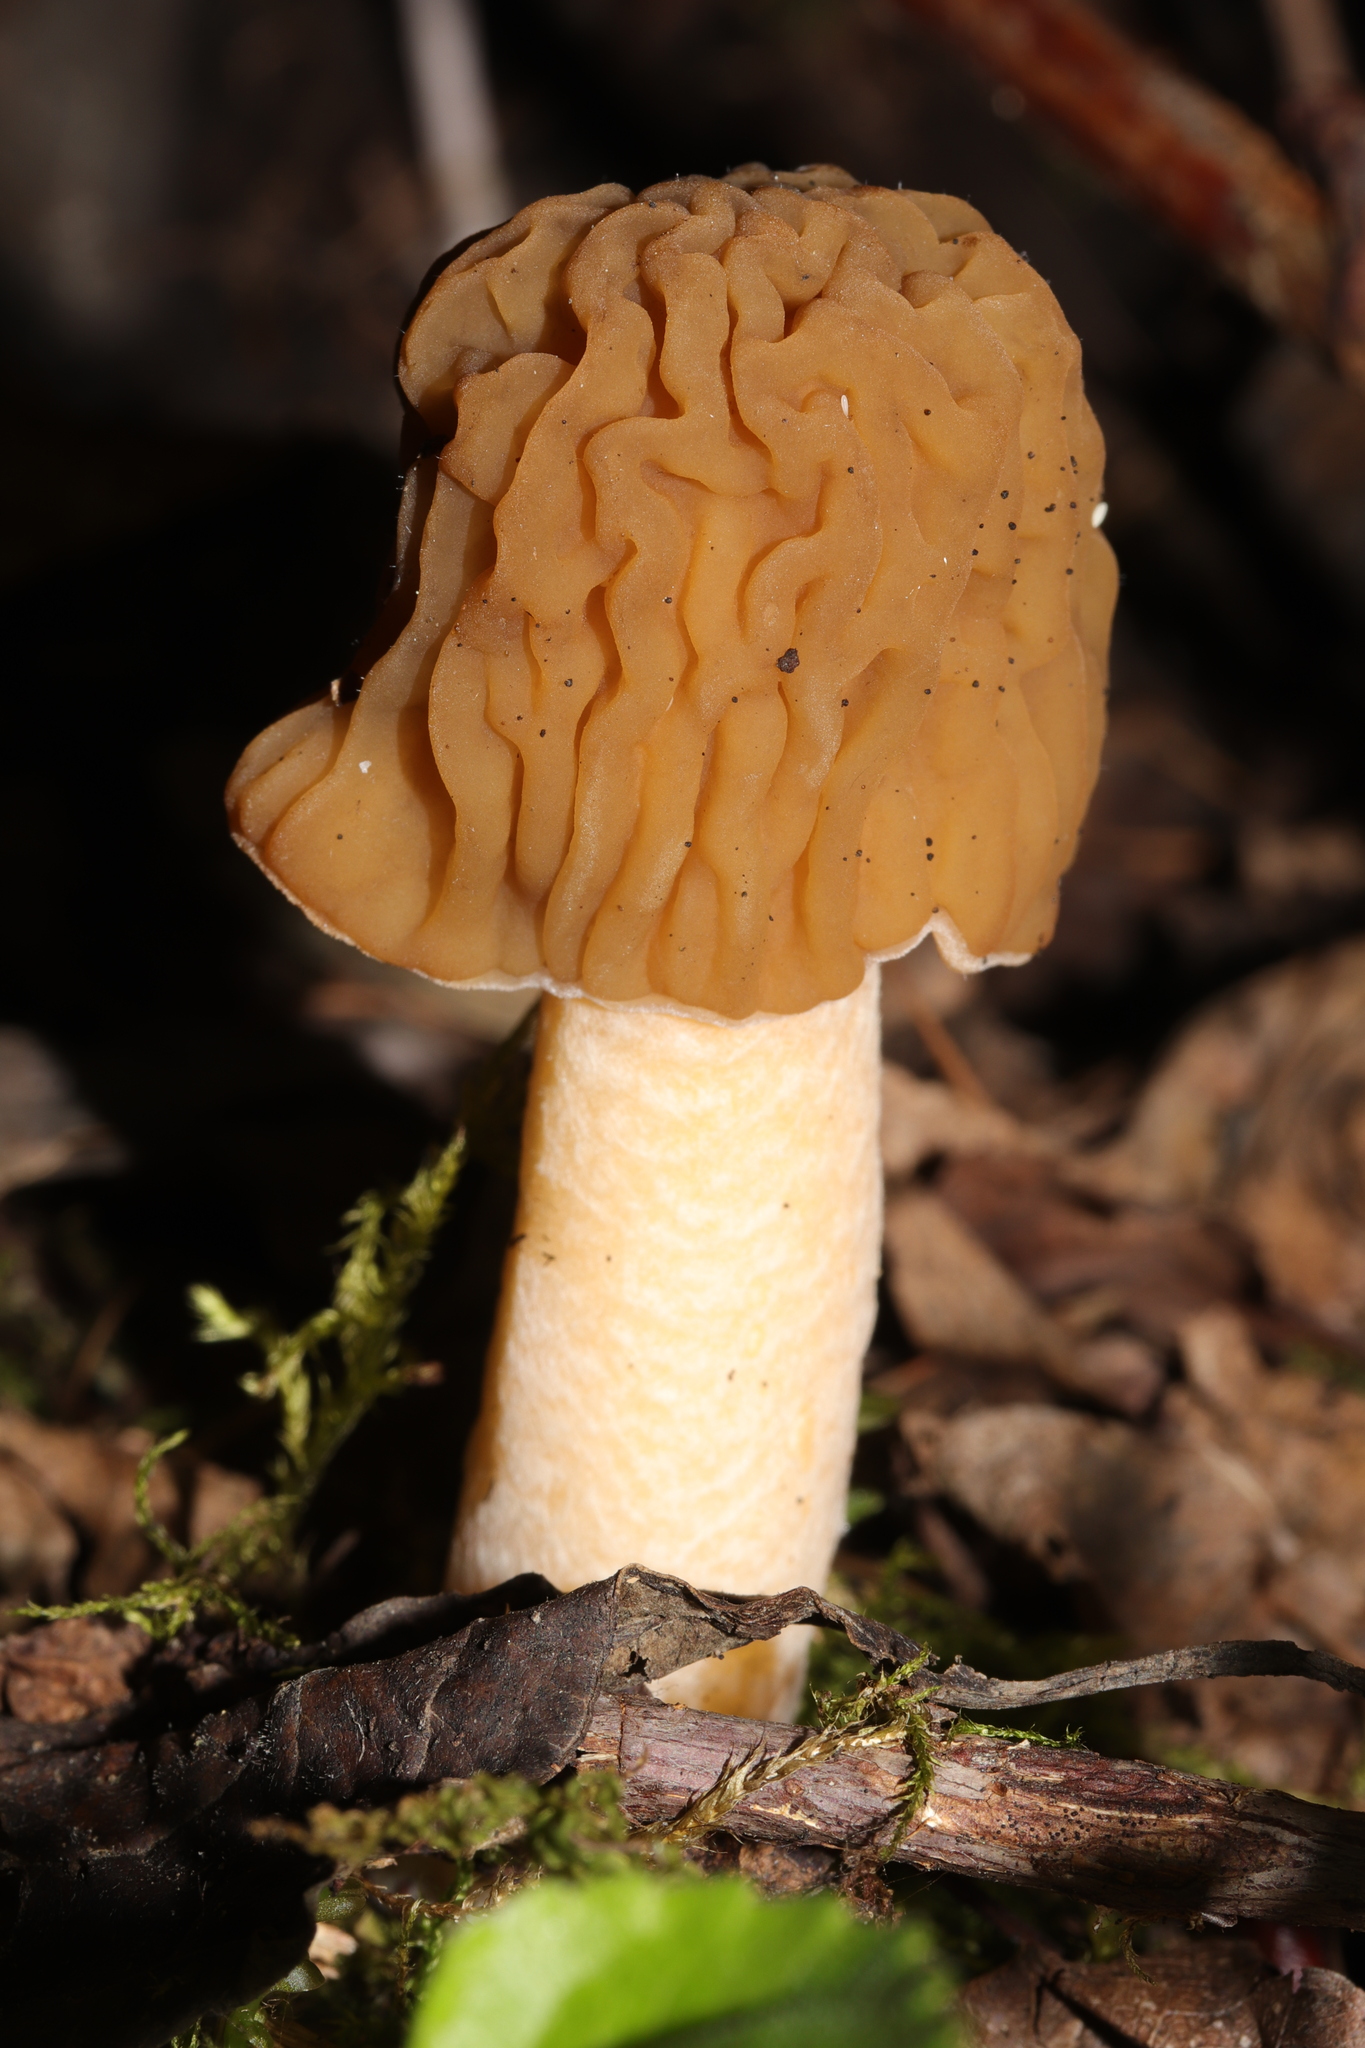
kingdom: Fungi
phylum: Ascomycota
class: Pezizomycetes
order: Pezizales
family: Morchellaceae
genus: Verpa
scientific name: Verpa bohemica
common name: Wrinkled thimble morel
